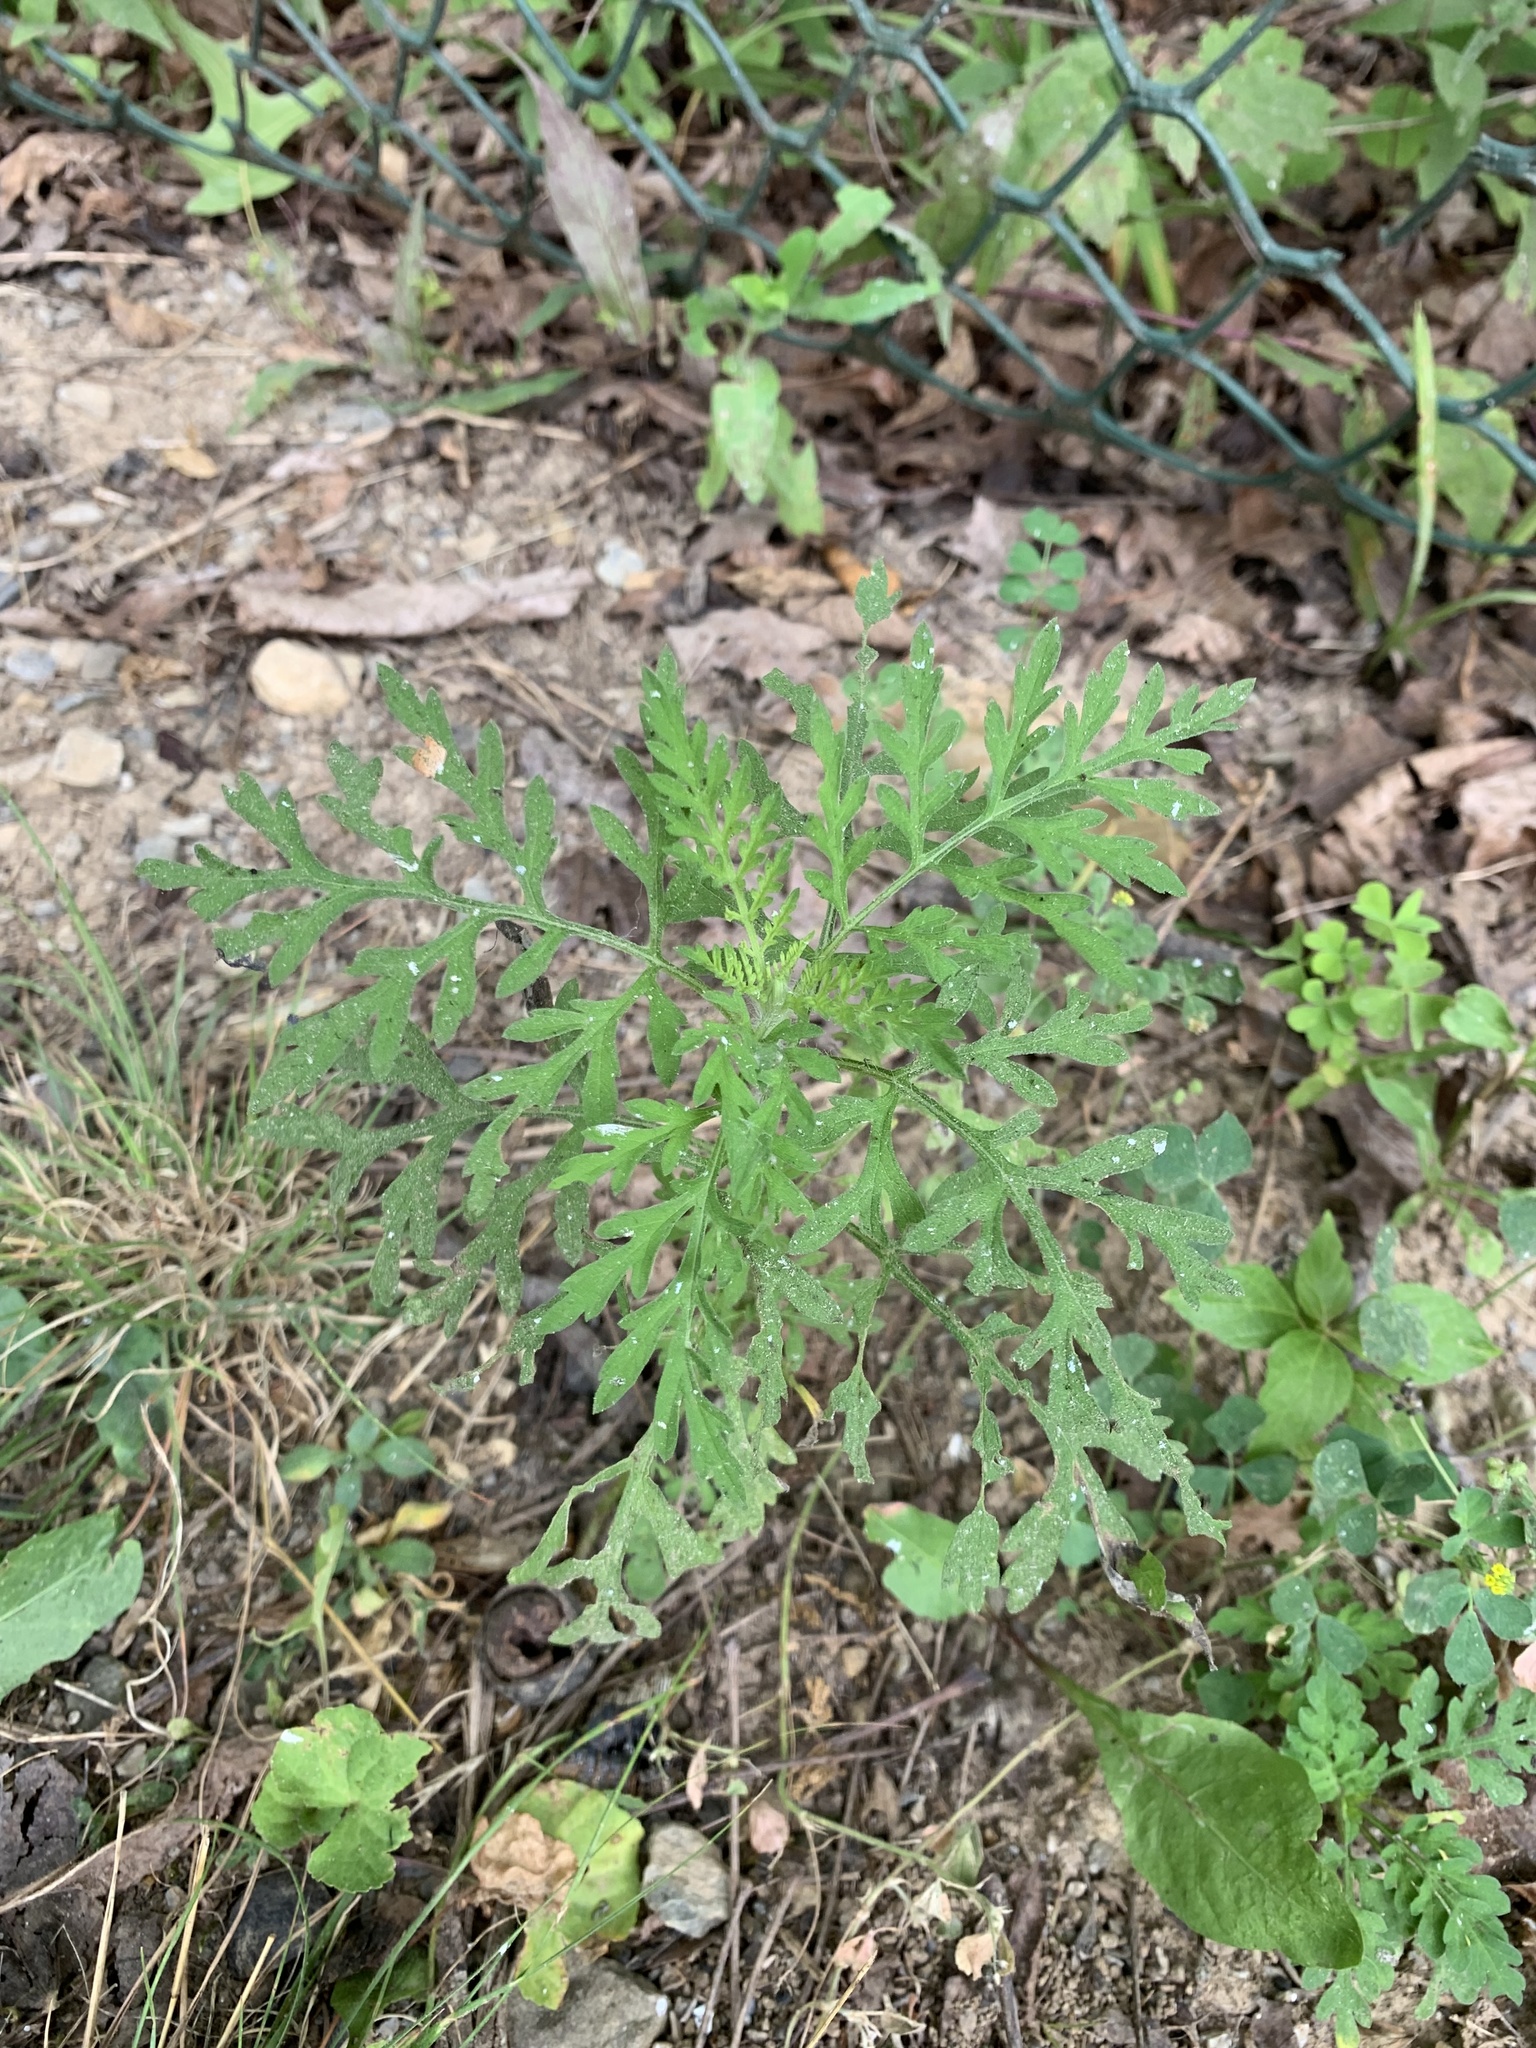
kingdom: Plantae
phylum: Tracheophyta
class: Magnoliopsida
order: Asterales
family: Asteraceae
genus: Ambrosia
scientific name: Ambrosia artemisiifolia
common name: Annual ragweed
